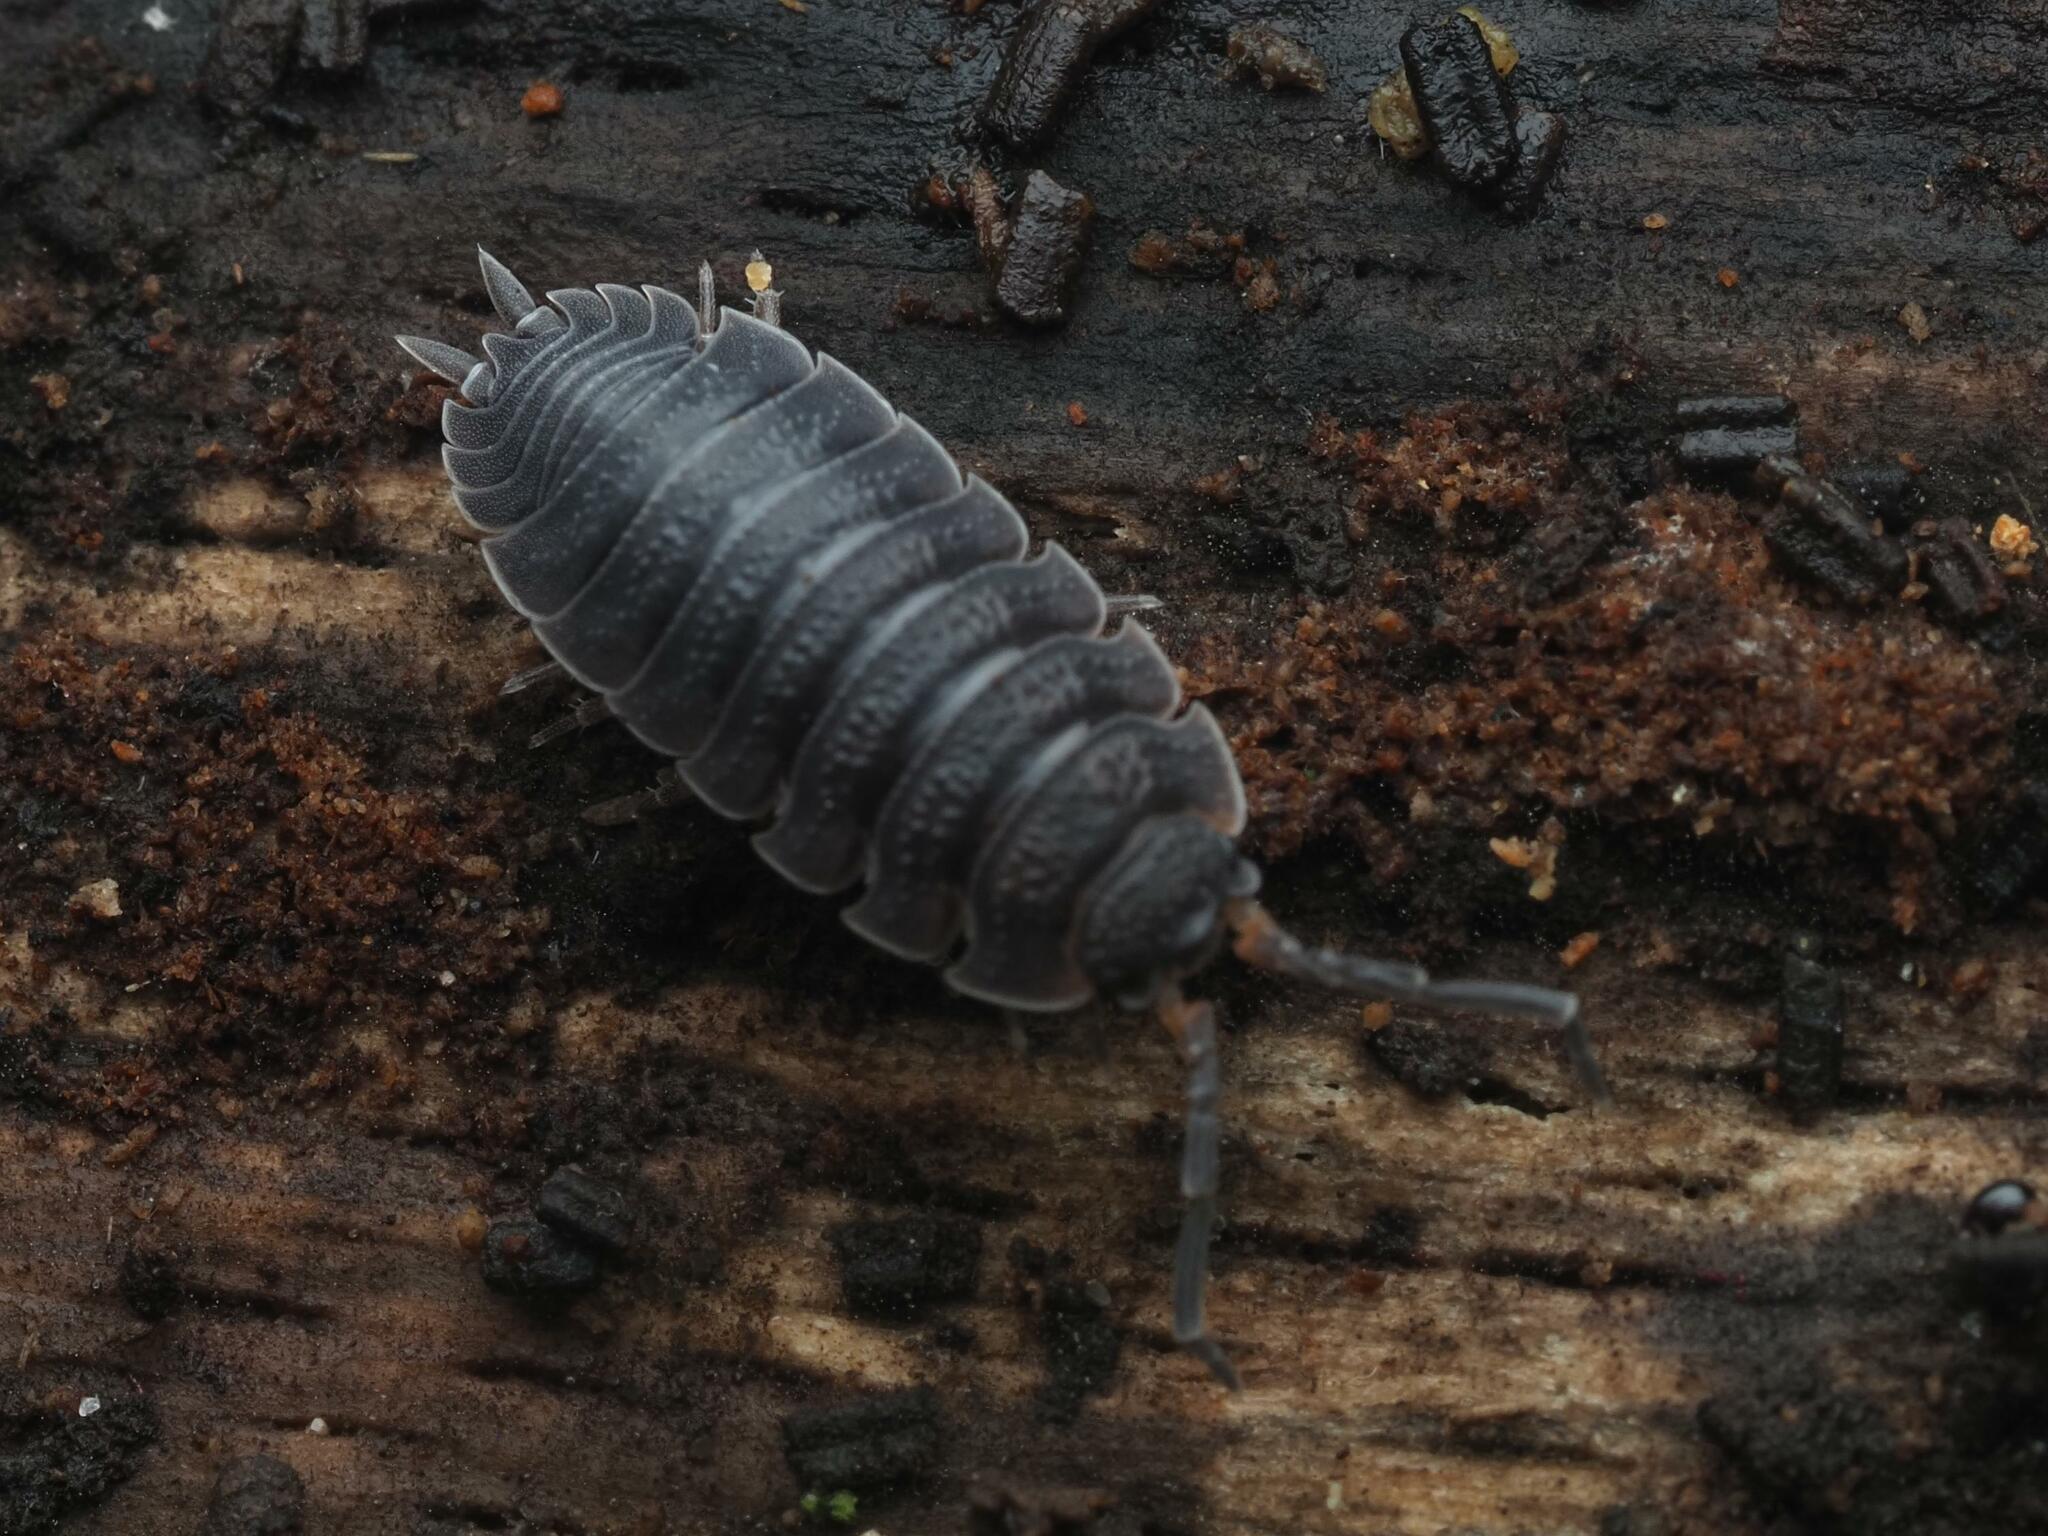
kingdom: Animalia
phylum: Arthropoda
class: Malacostraca
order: Isopoda
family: Porcellionidae
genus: Porcellio
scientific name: Porcellio scaber
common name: Common rough woodlouse
